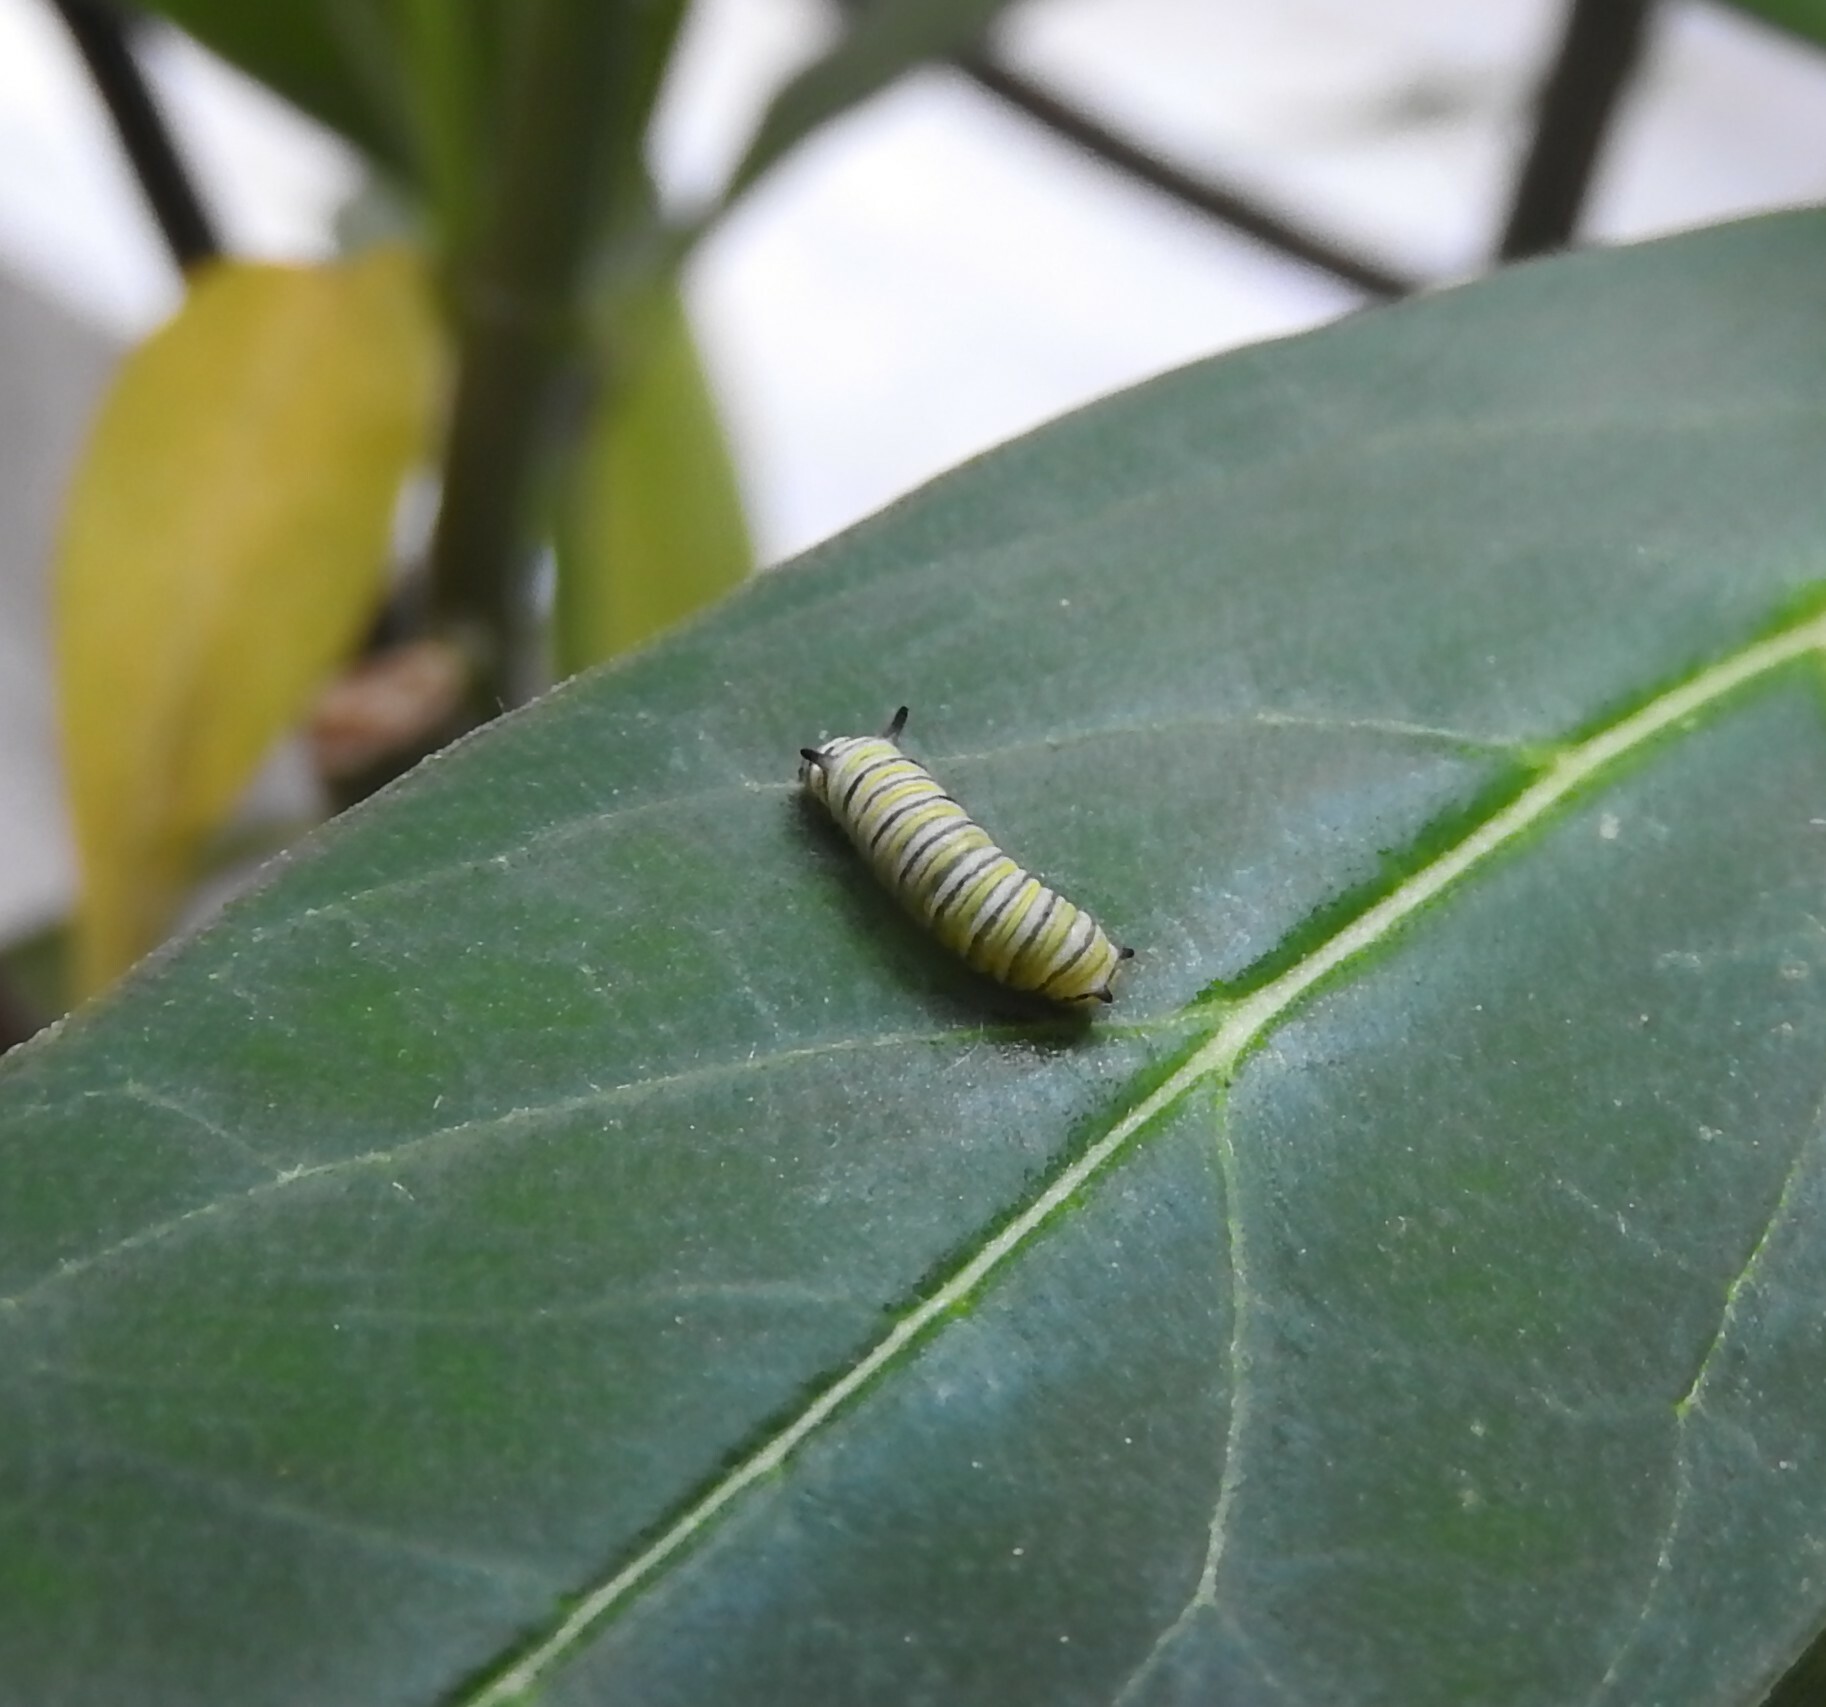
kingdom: Animalia
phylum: Arthropoda
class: Insecta
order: Lepidoptera
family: Nymphalidae
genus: Danaus
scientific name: Danaus plexippus
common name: Monarch
